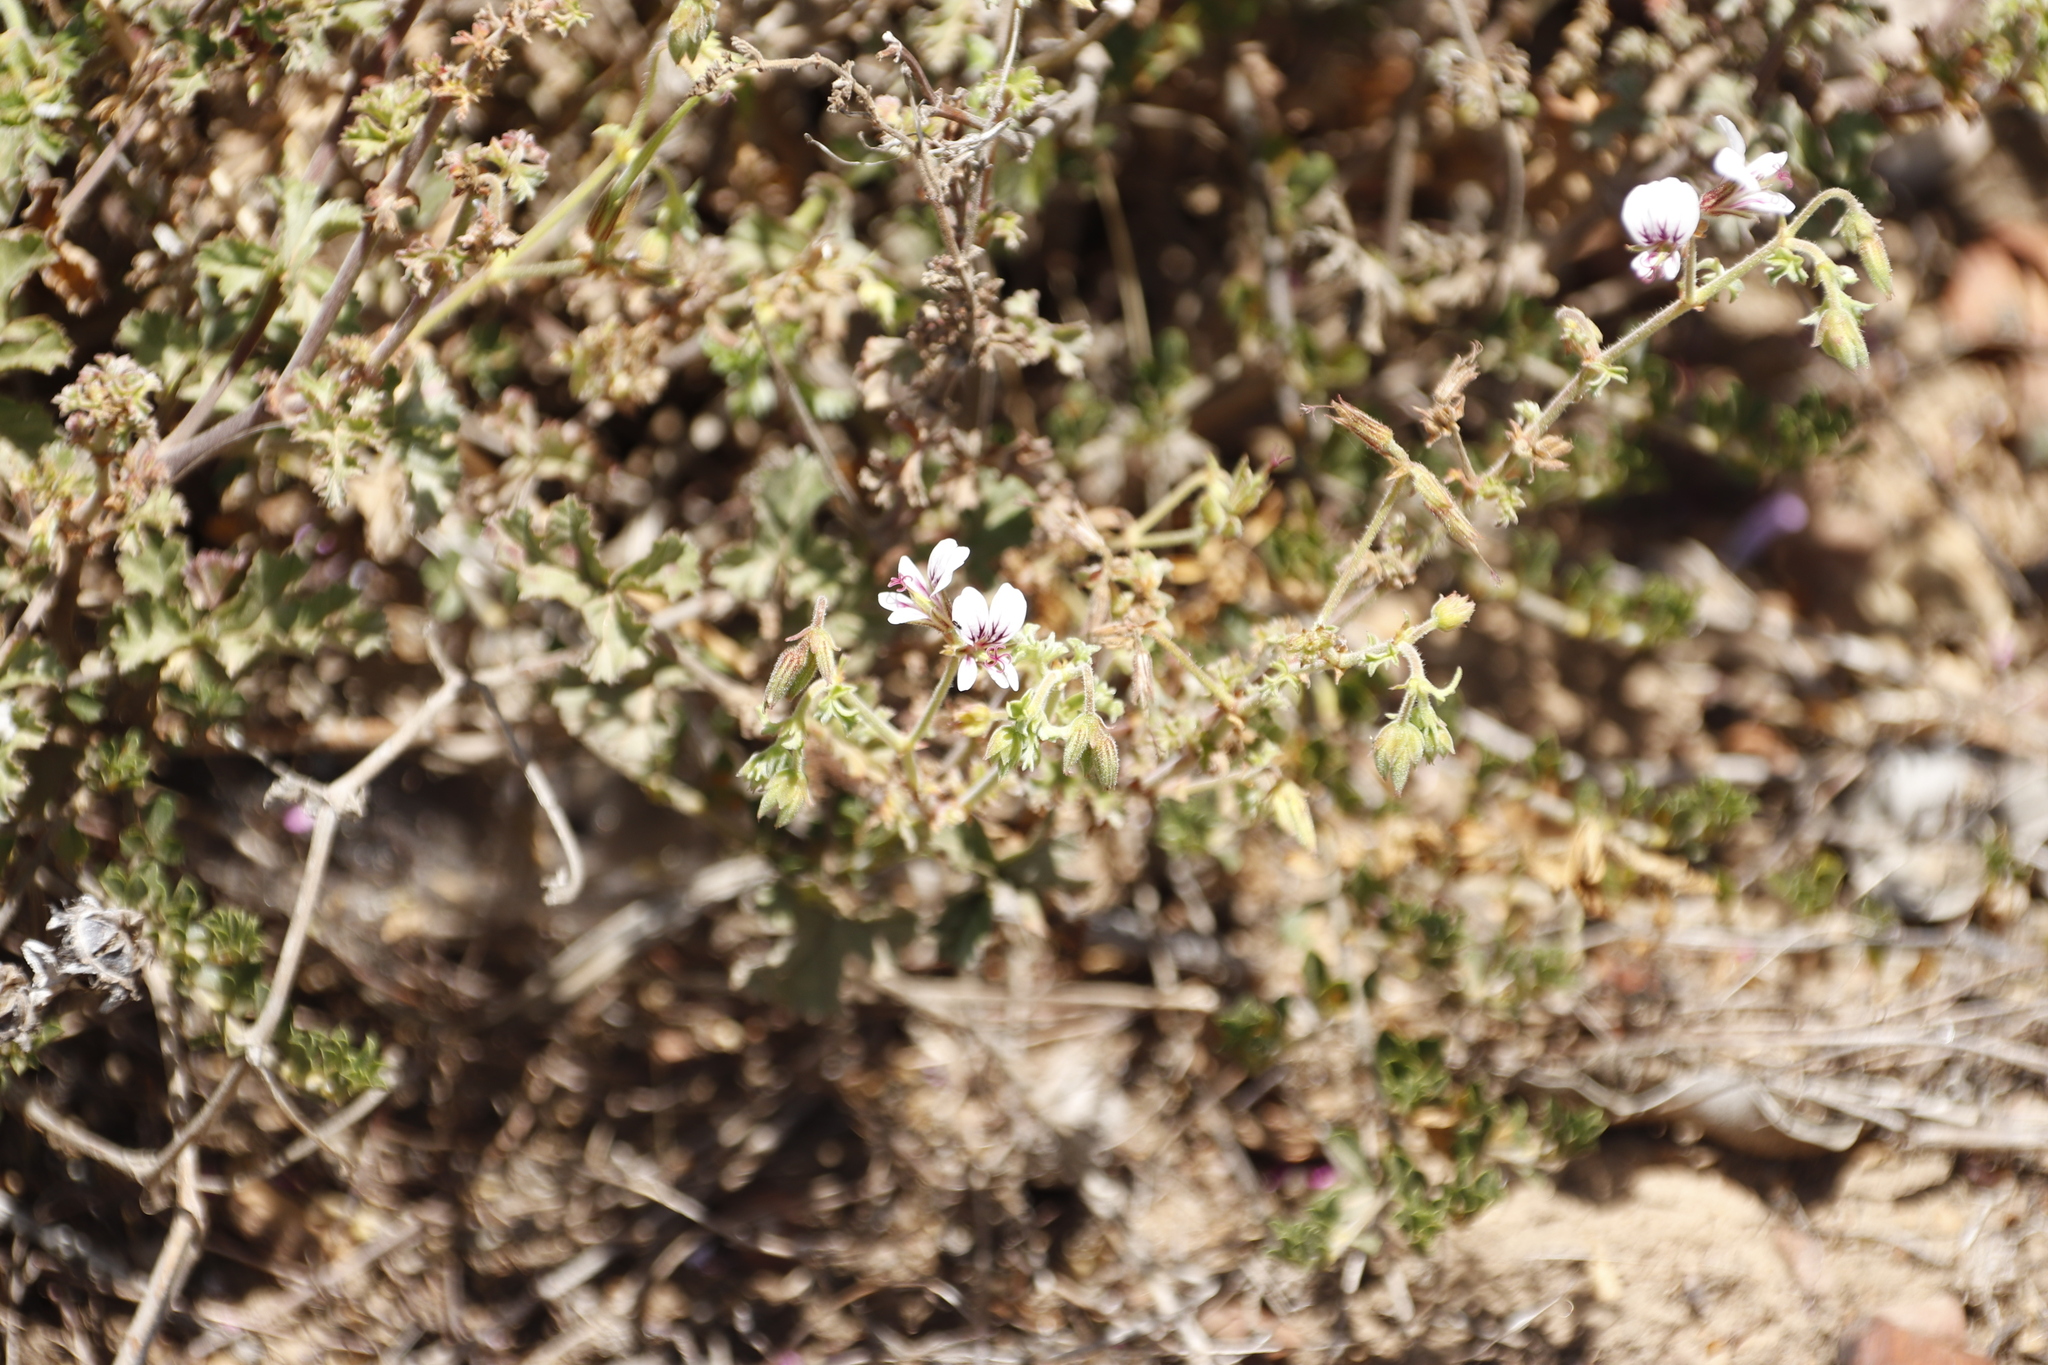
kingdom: Plantae
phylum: Tracheophyta
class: Magnoliopsida
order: Geraniales
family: Geraniaceae
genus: Pelargonium
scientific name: Pelargonium candicans
